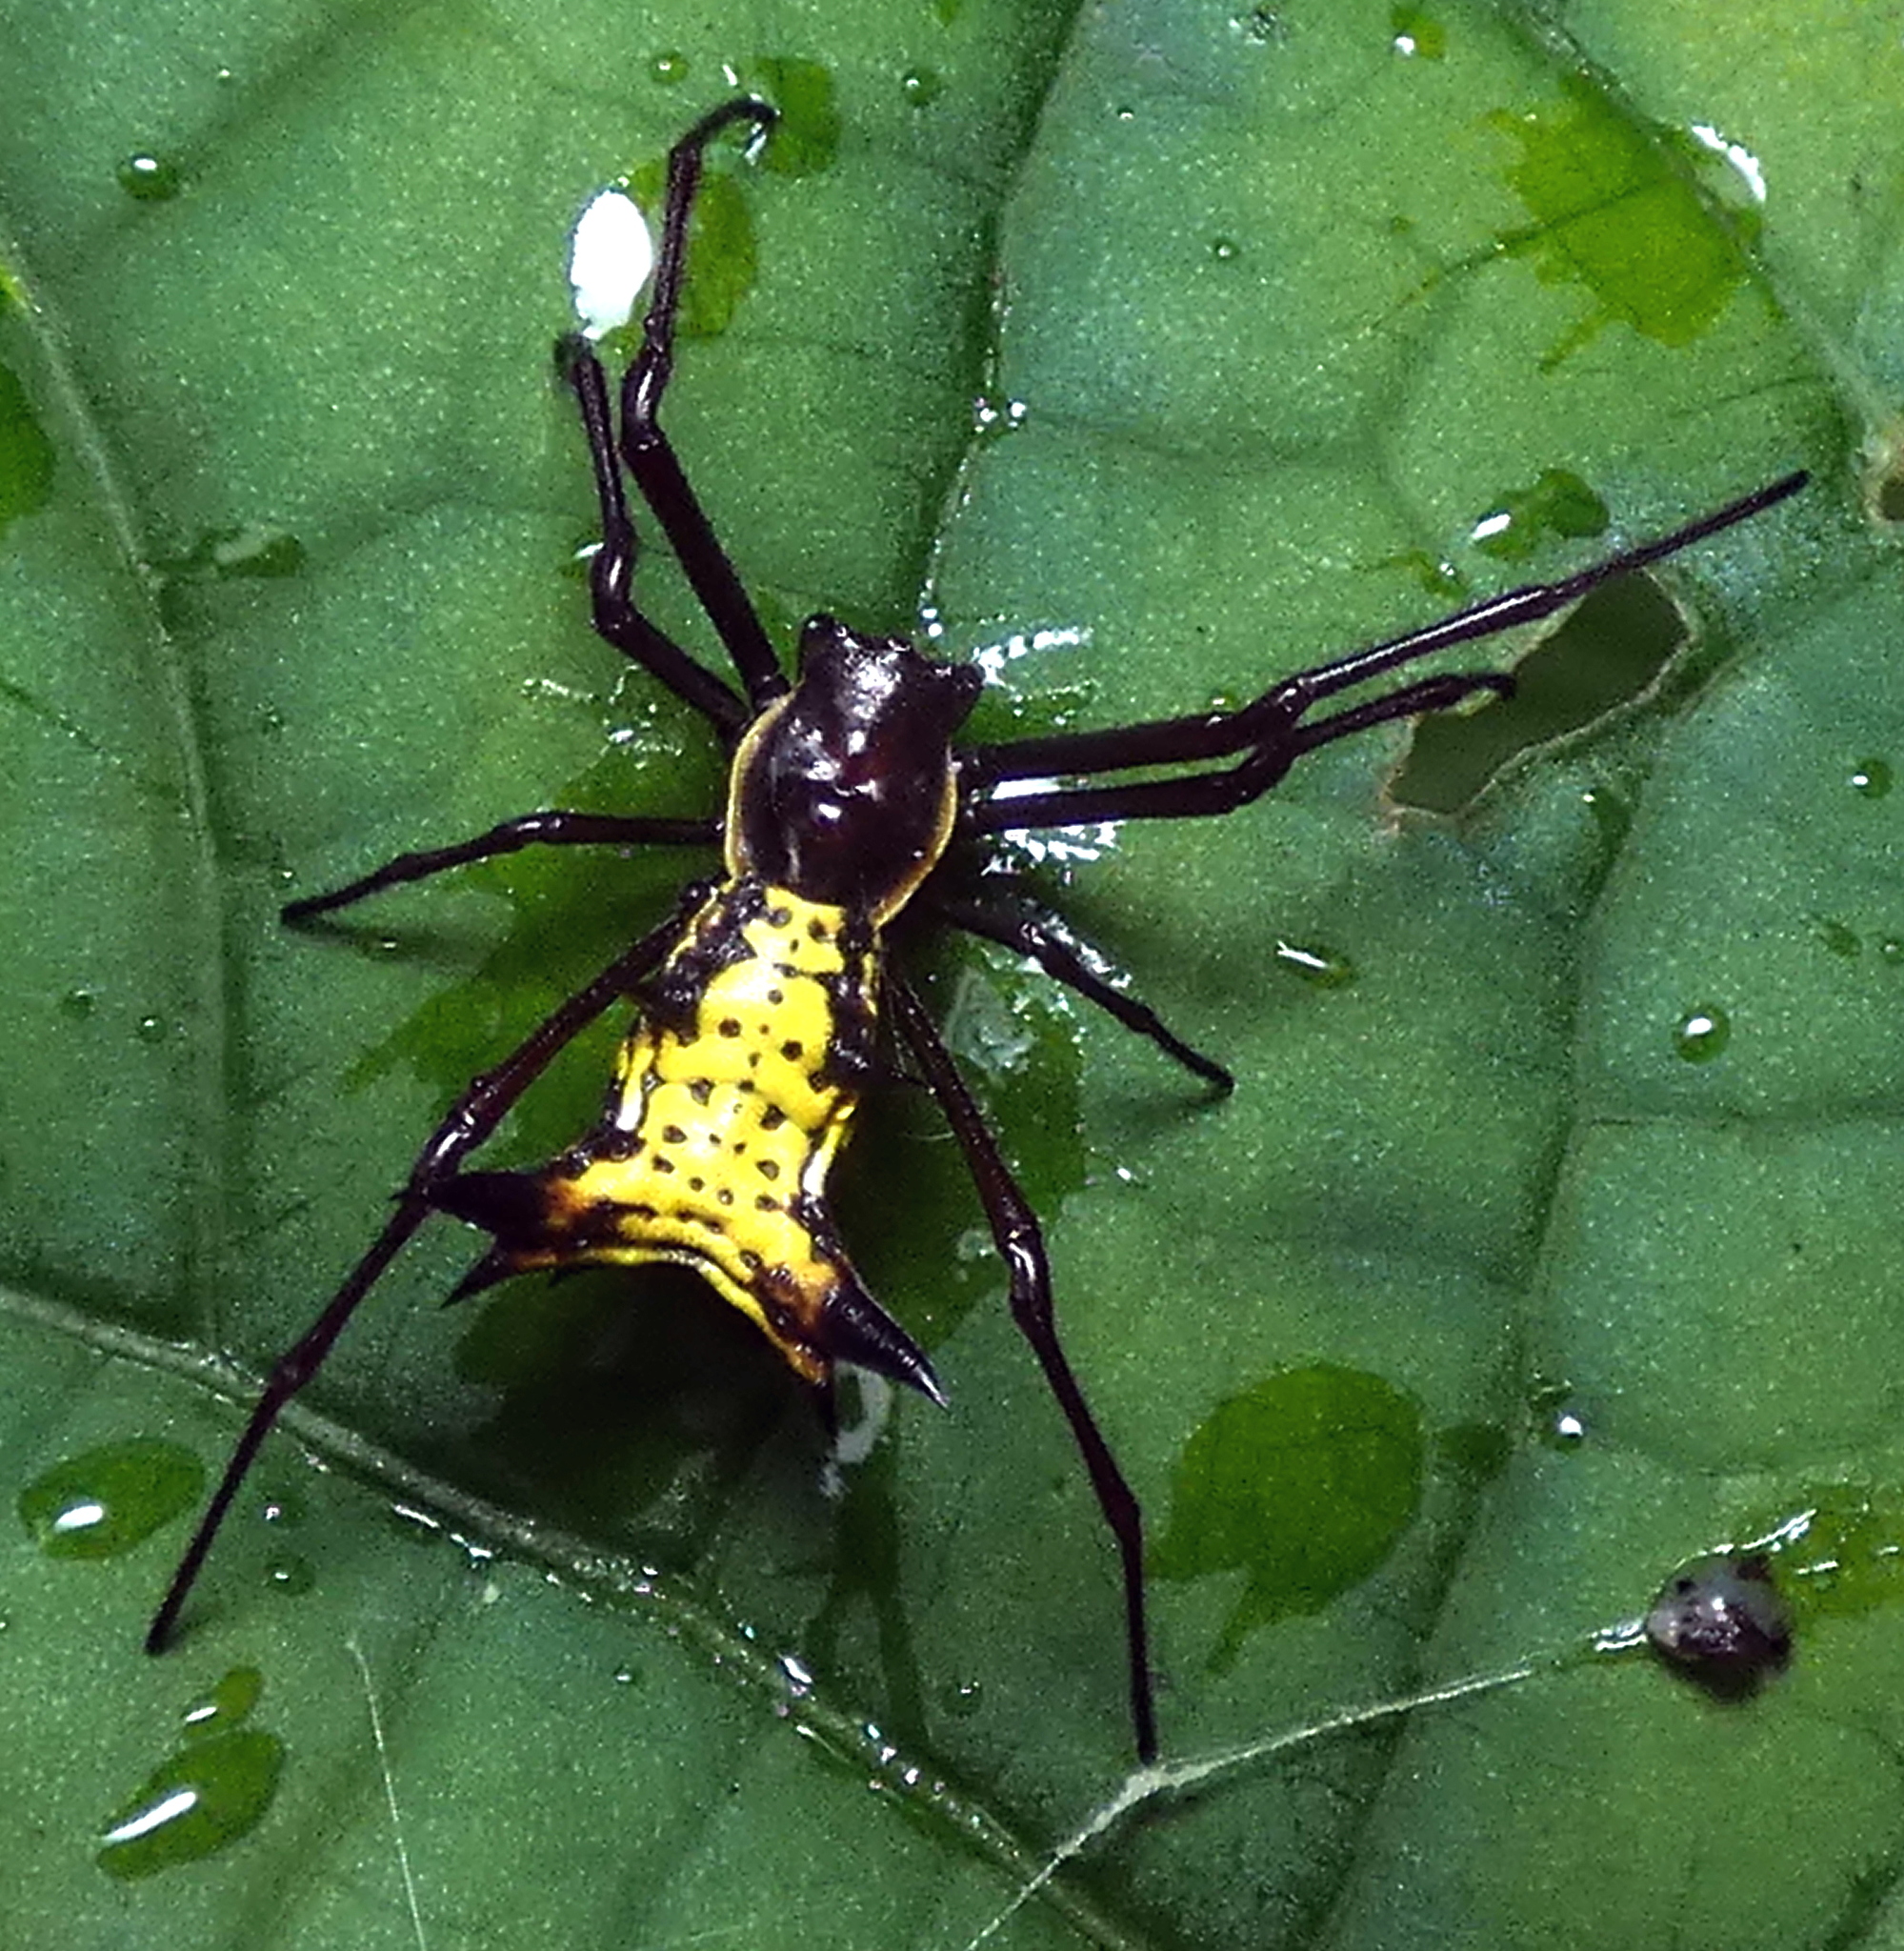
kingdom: Animalia
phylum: Arthropoda
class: Arachnida
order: Araneae
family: Araneidae
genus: Micrathena
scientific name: Micrathena fissispina
